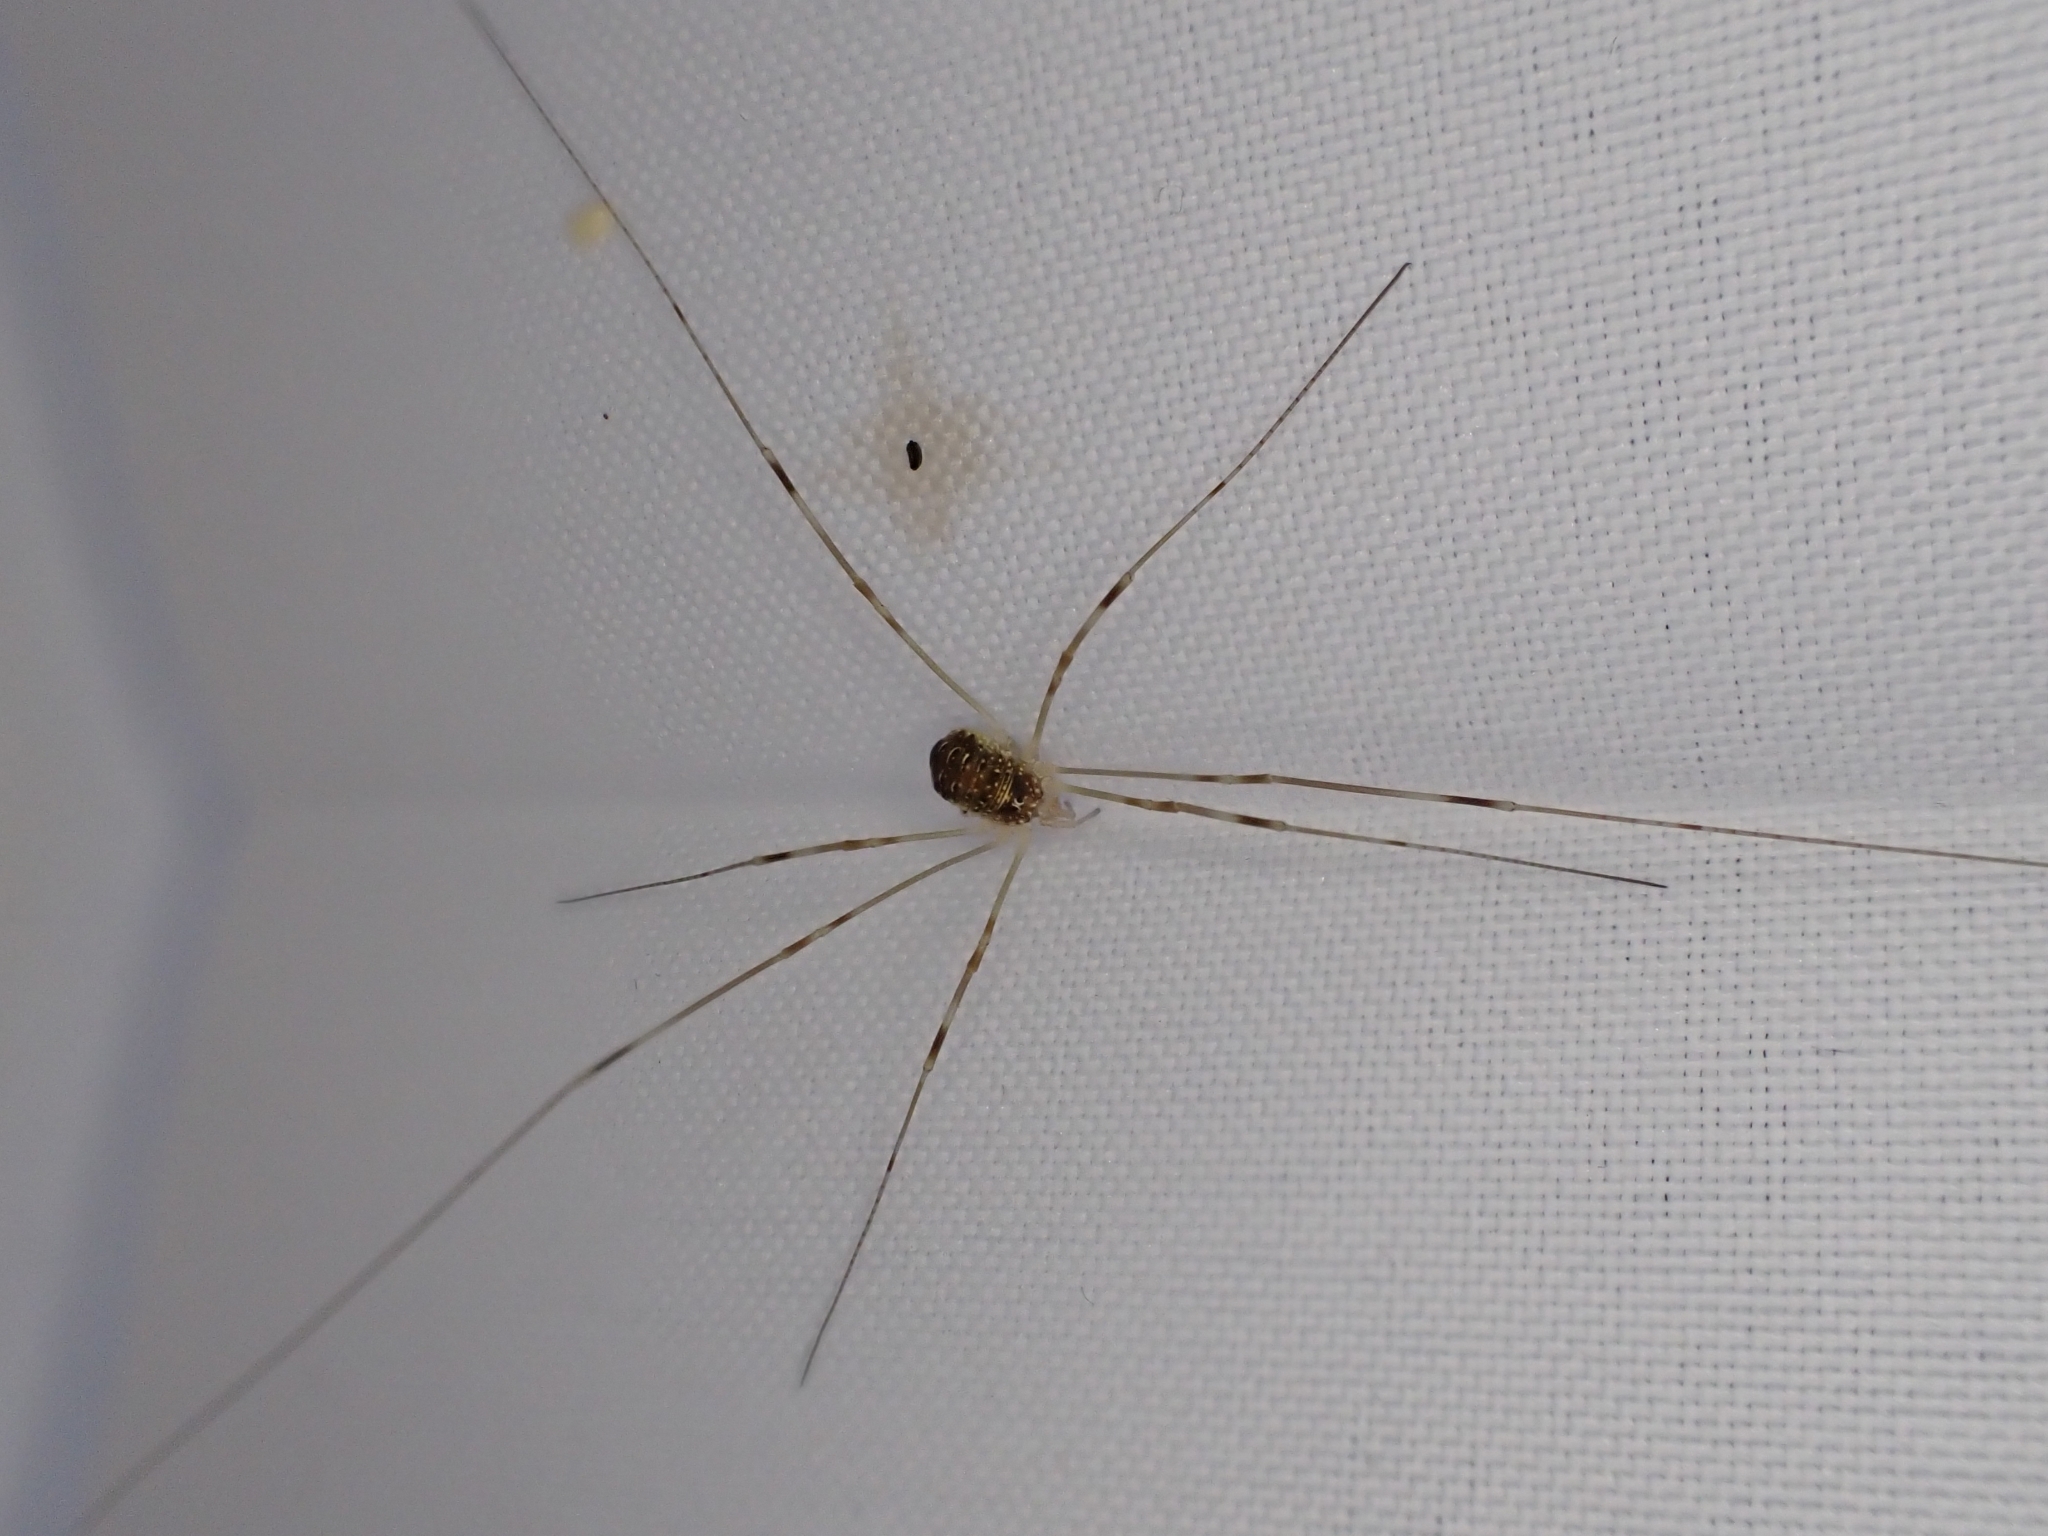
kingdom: Animalia
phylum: Arthropoda
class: Arachnida
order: Opiliones
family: Phalangiidae
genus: Opilio
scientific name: Opilio canestrinii
